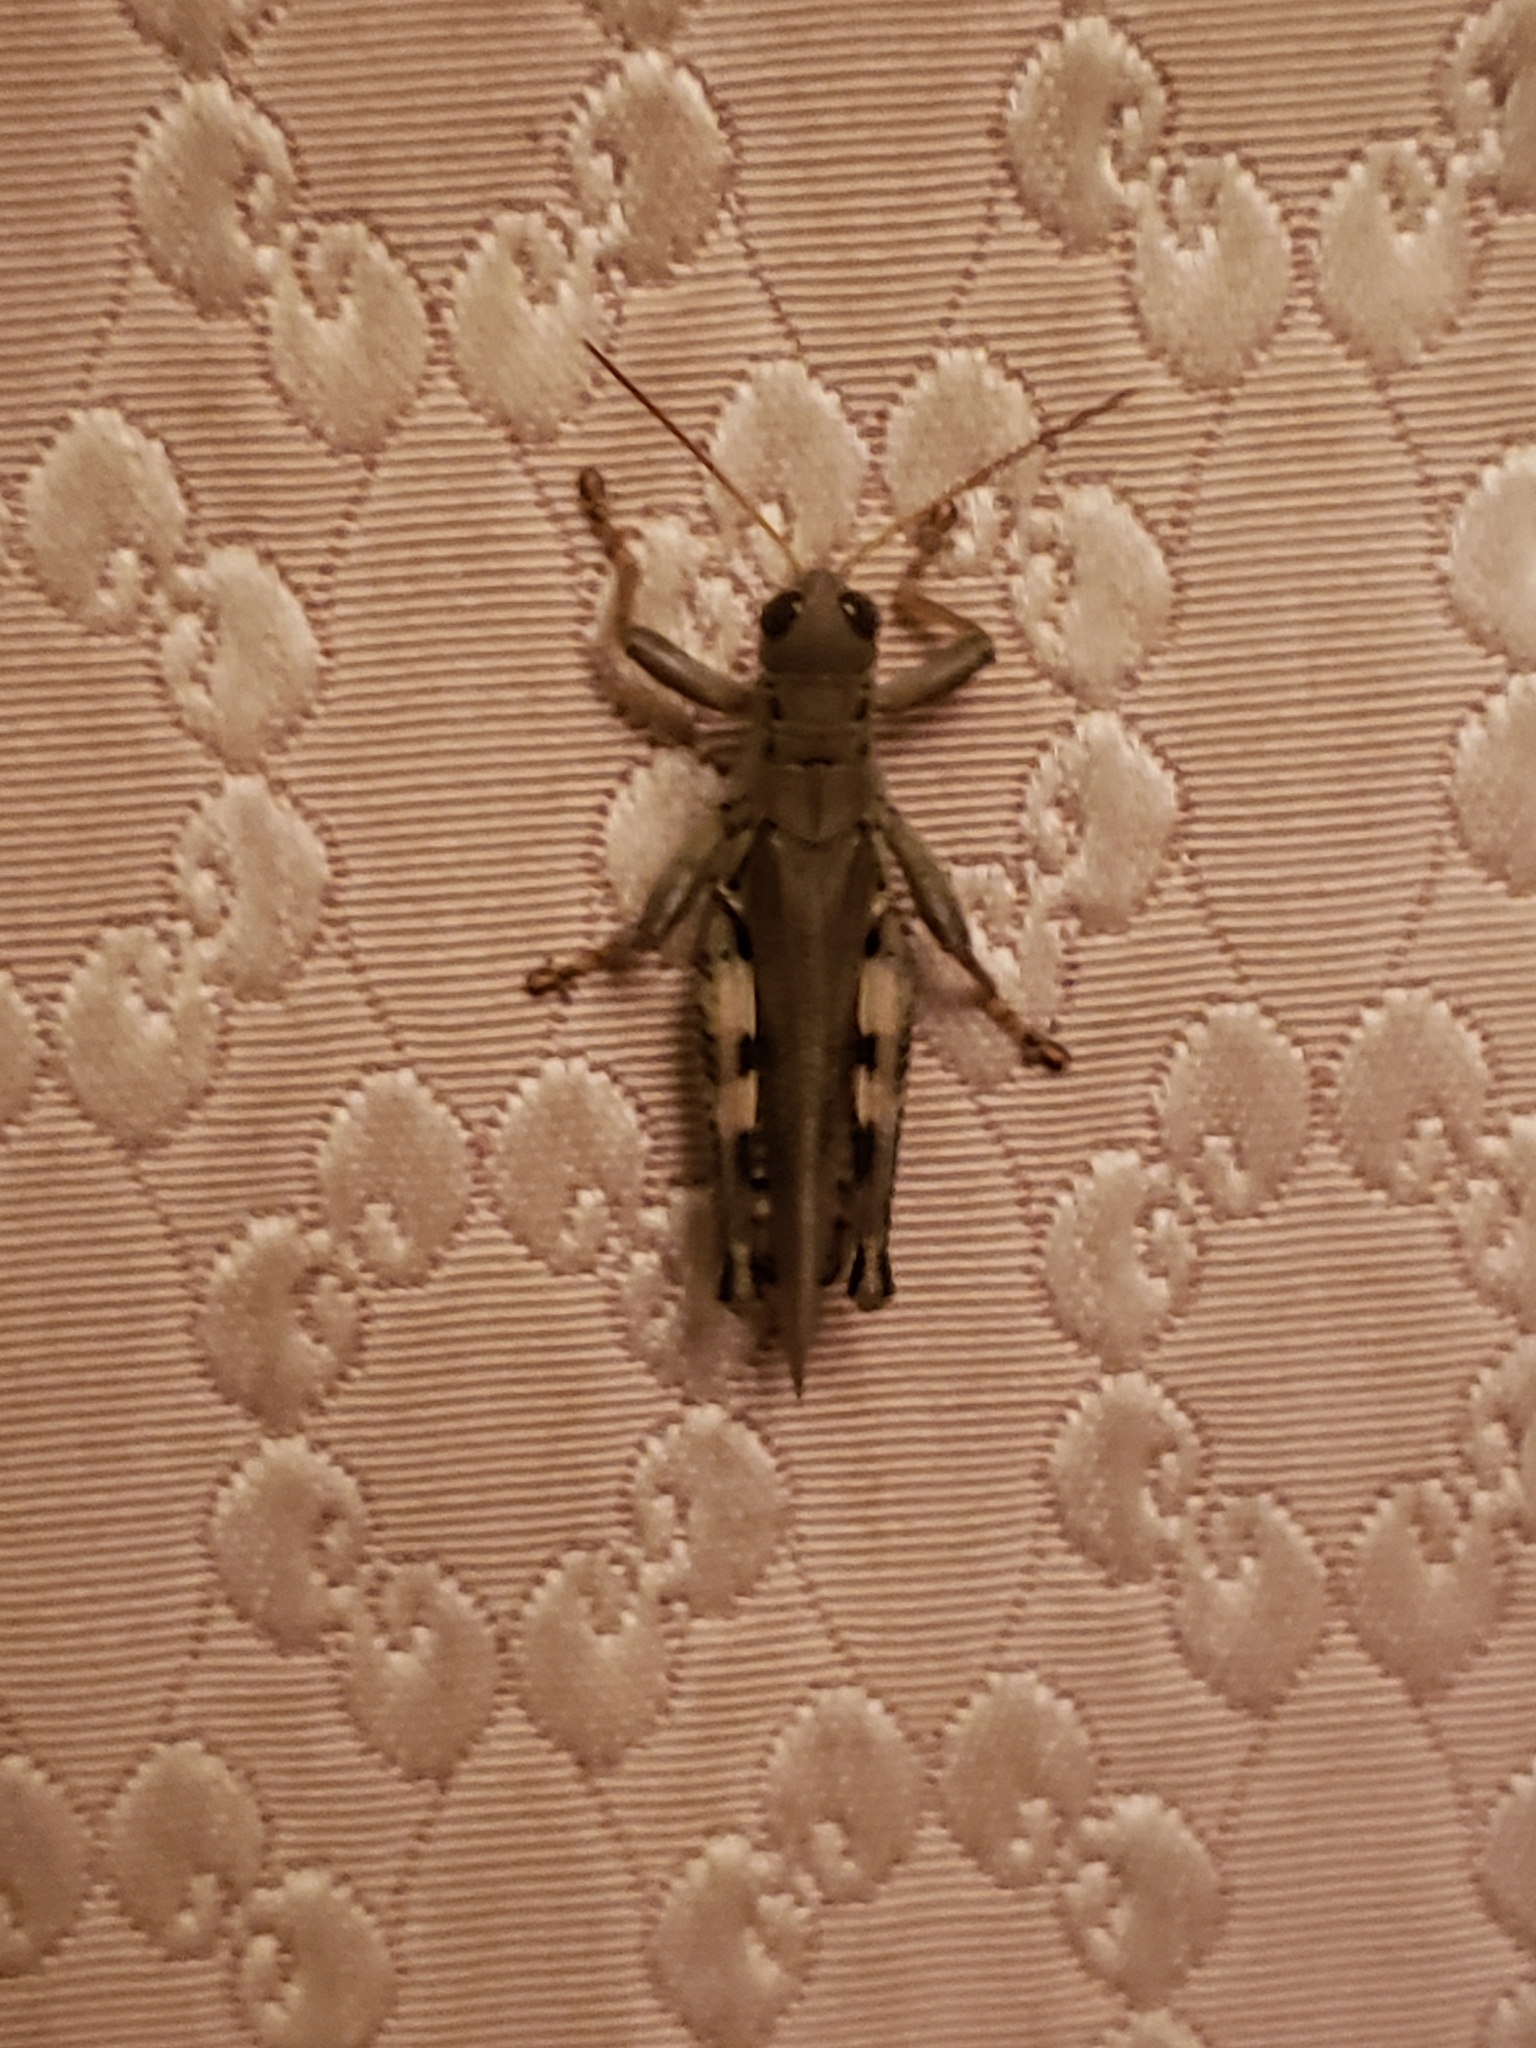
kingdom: Animalia
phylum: Arthropoda
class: Insecta
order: Orthoptera
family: Acrididae
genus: Melanoplus
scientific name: Melanoplus differentialis
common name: Differential grasshopper
